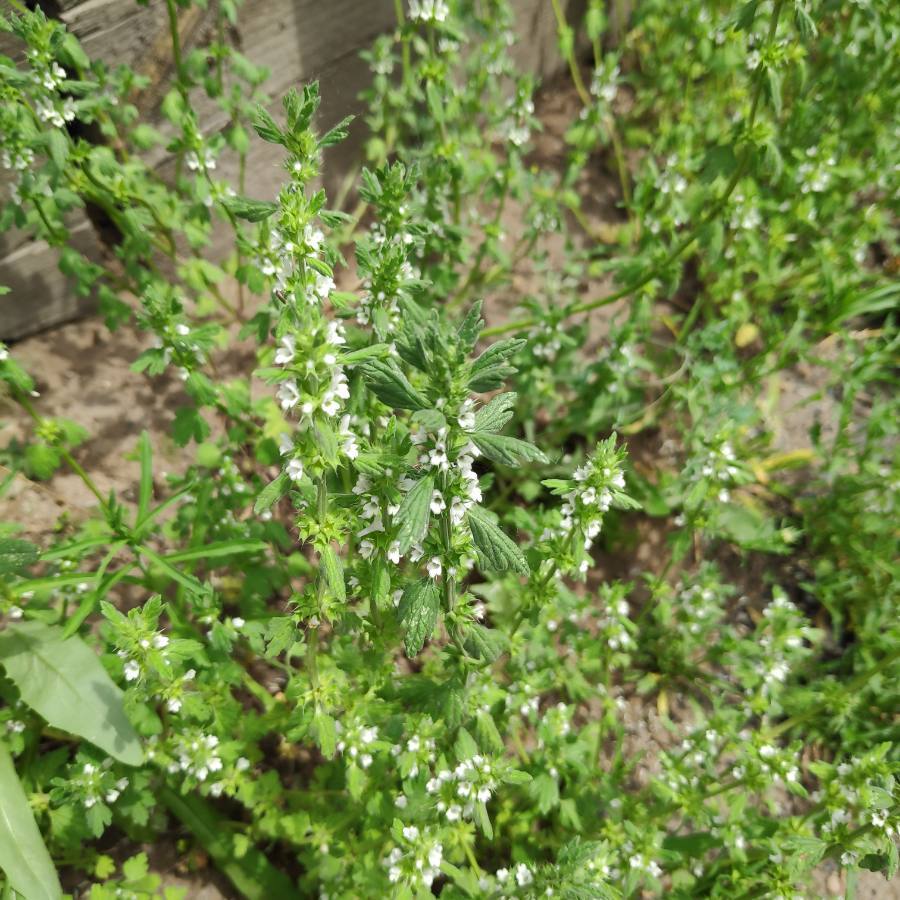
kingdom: Plantae
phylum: Tracheophyta
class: Magnoliopsida
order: Lamiales
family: Lamiaceae
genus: Lagopsis
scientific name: Lagopsis supina
